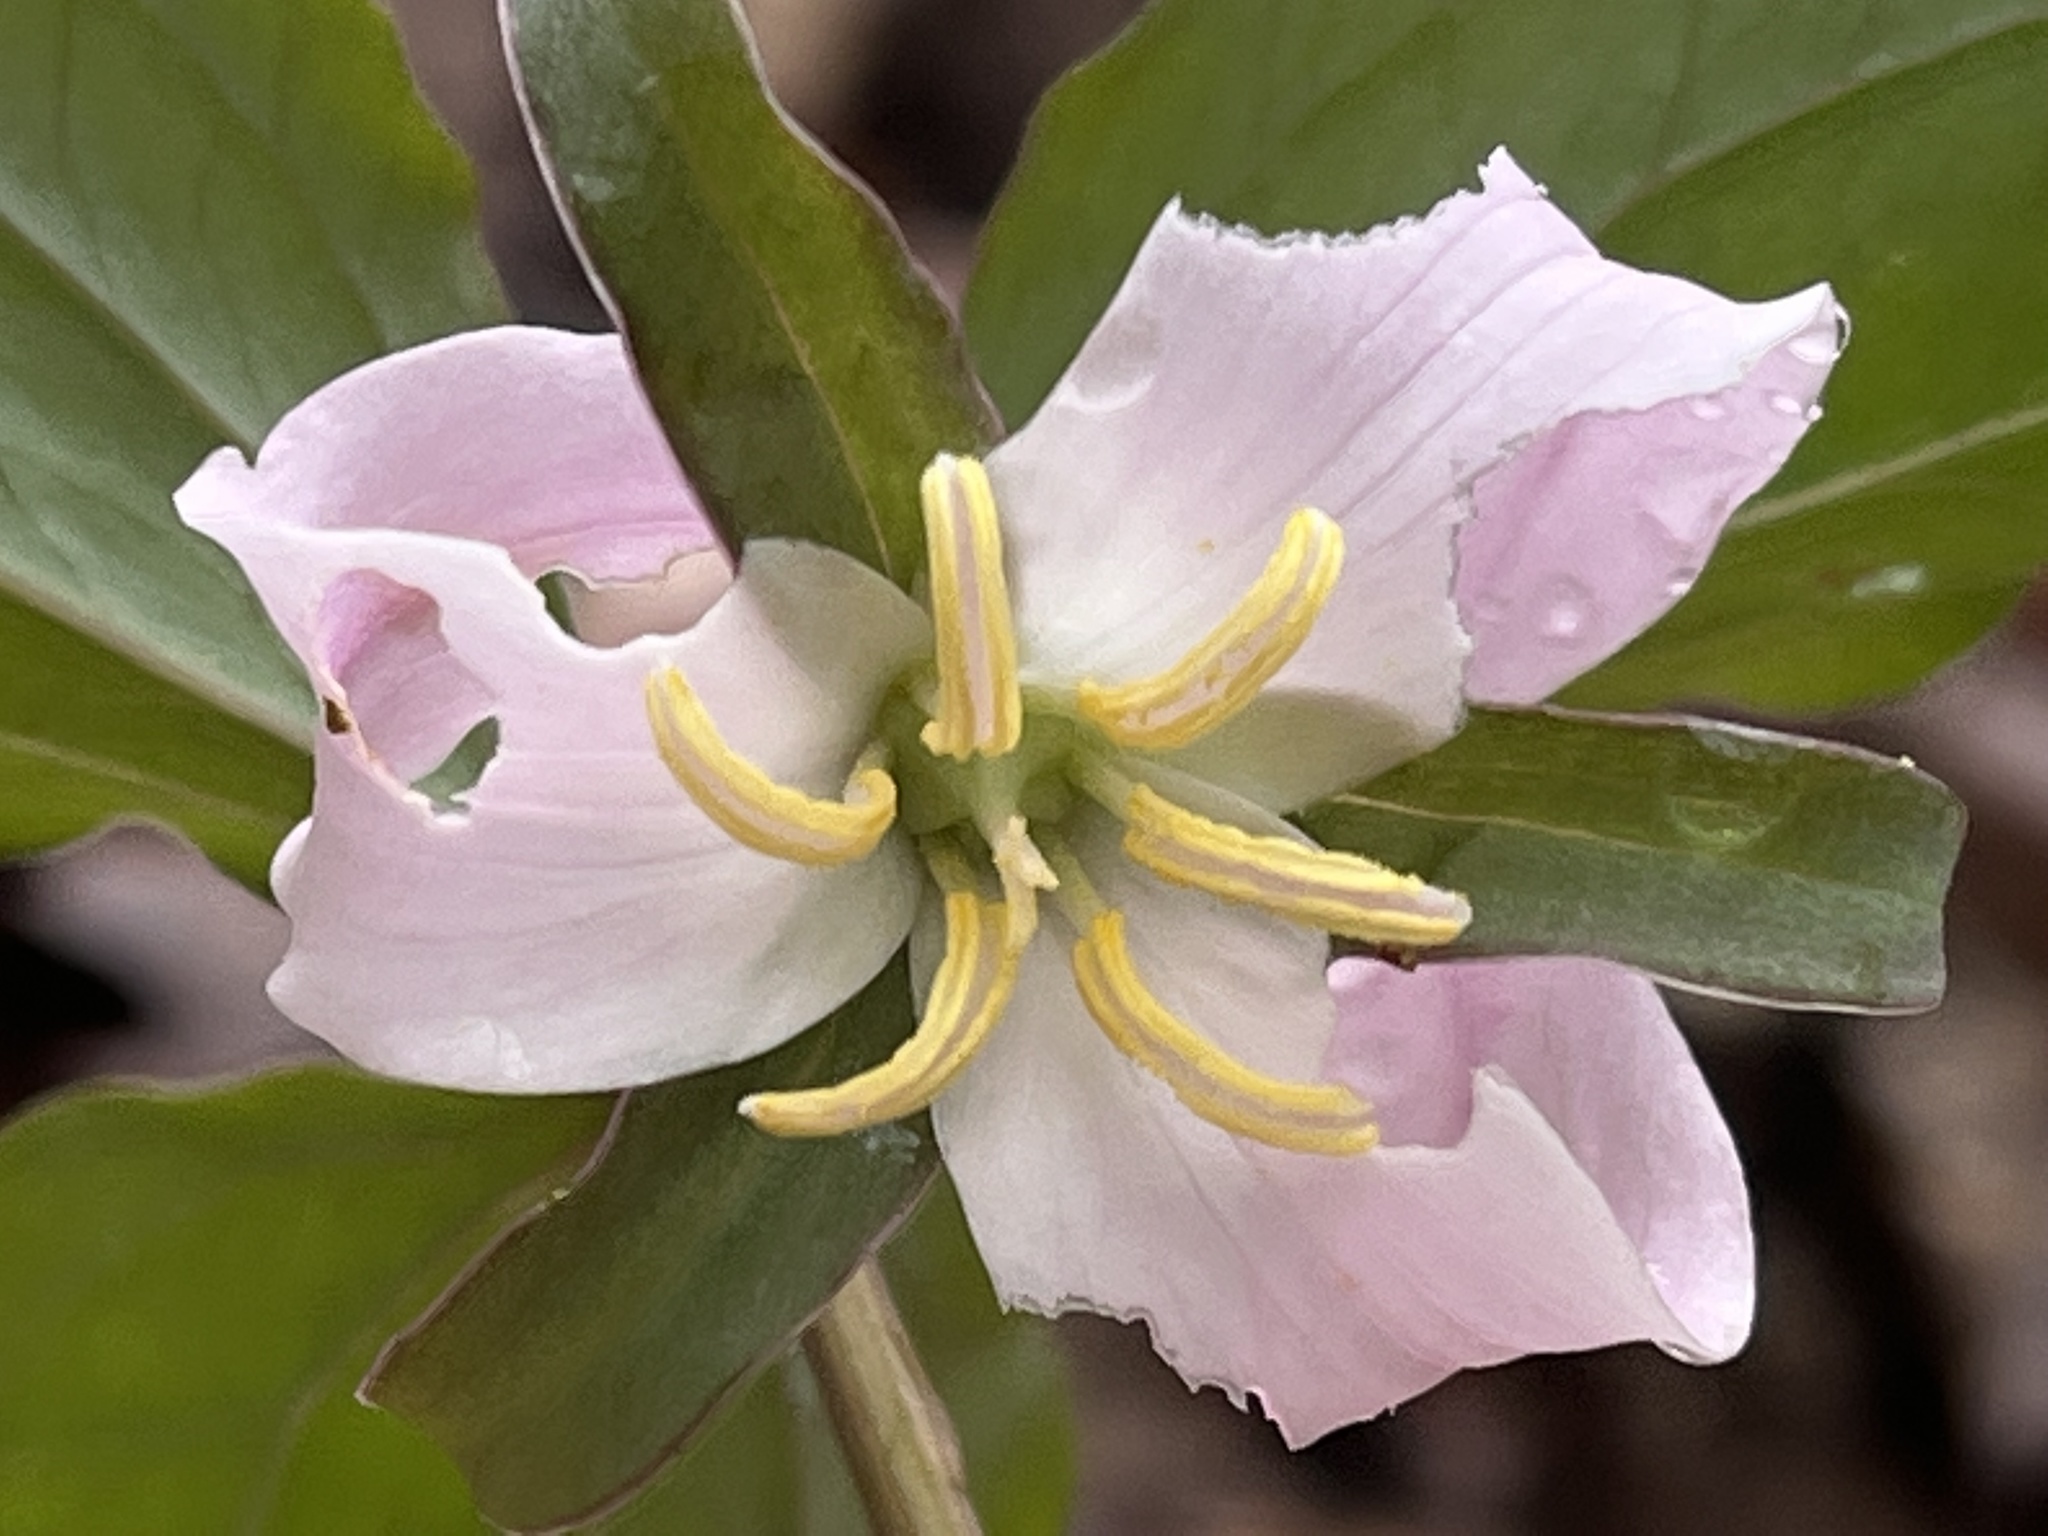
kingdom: Plantae
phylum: Tracheophyta
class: Liliopsida
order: Liliales
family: Melanthiaceae
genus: Trillium
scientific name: Trillium catesbaei
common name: Bashful trillium
